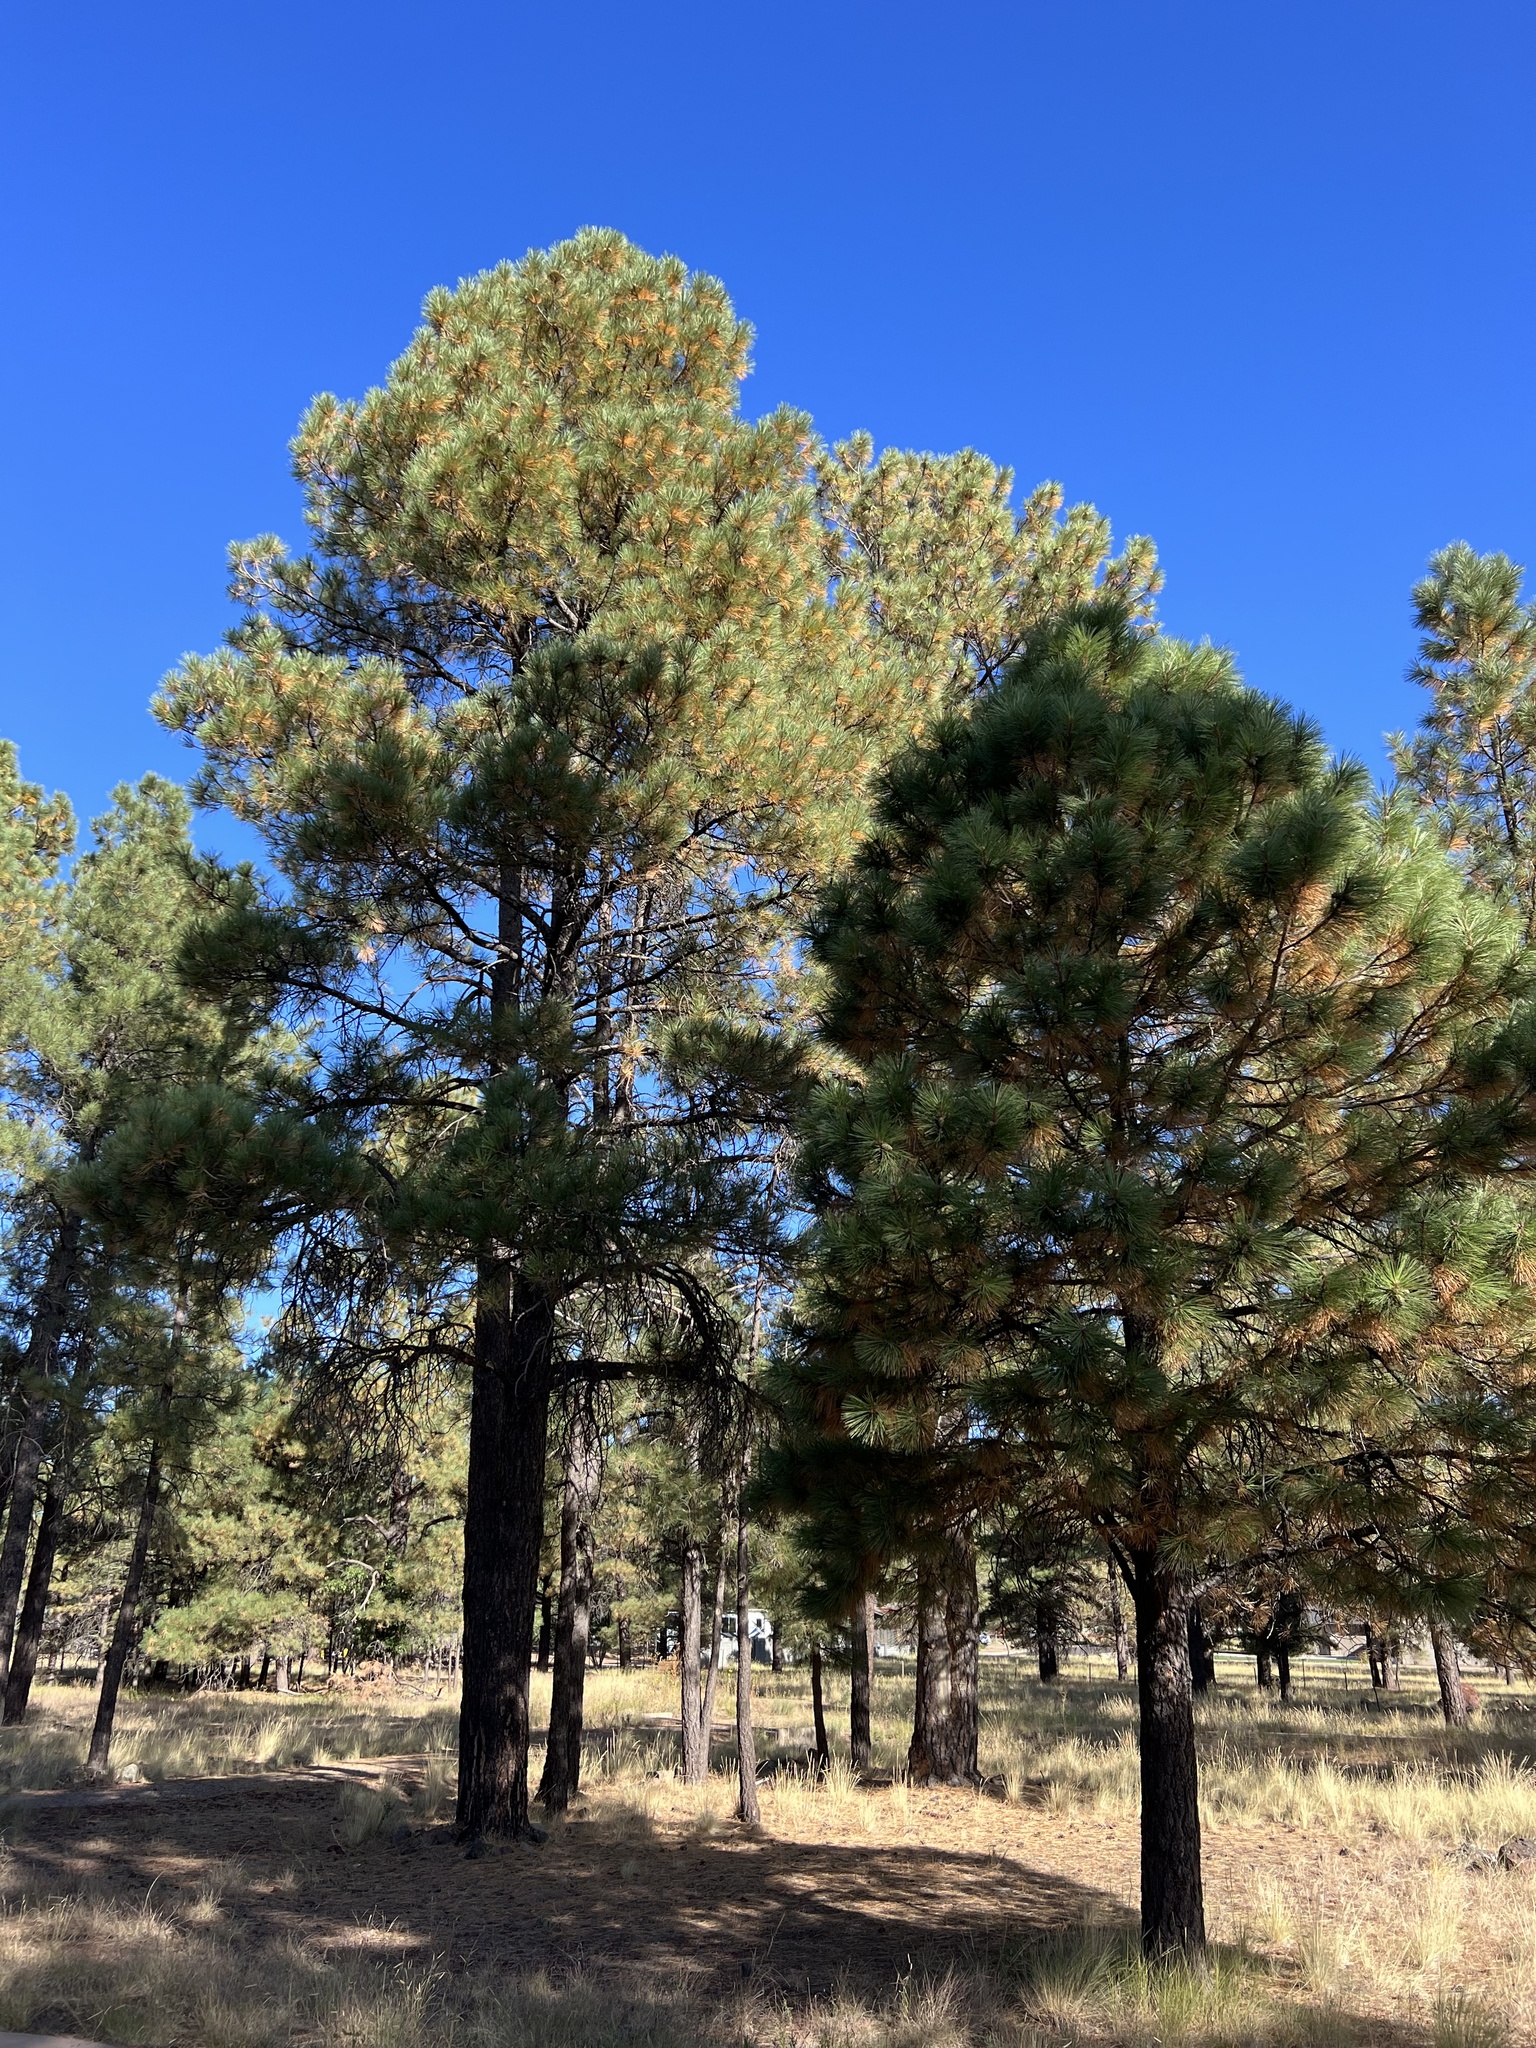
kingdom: Plantae
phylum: Tracheophyta
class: Pinopsida
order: Pinales
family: Pinaceae
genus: Pinus
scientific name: Pinus ponderosa
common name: Western yellow-pine
